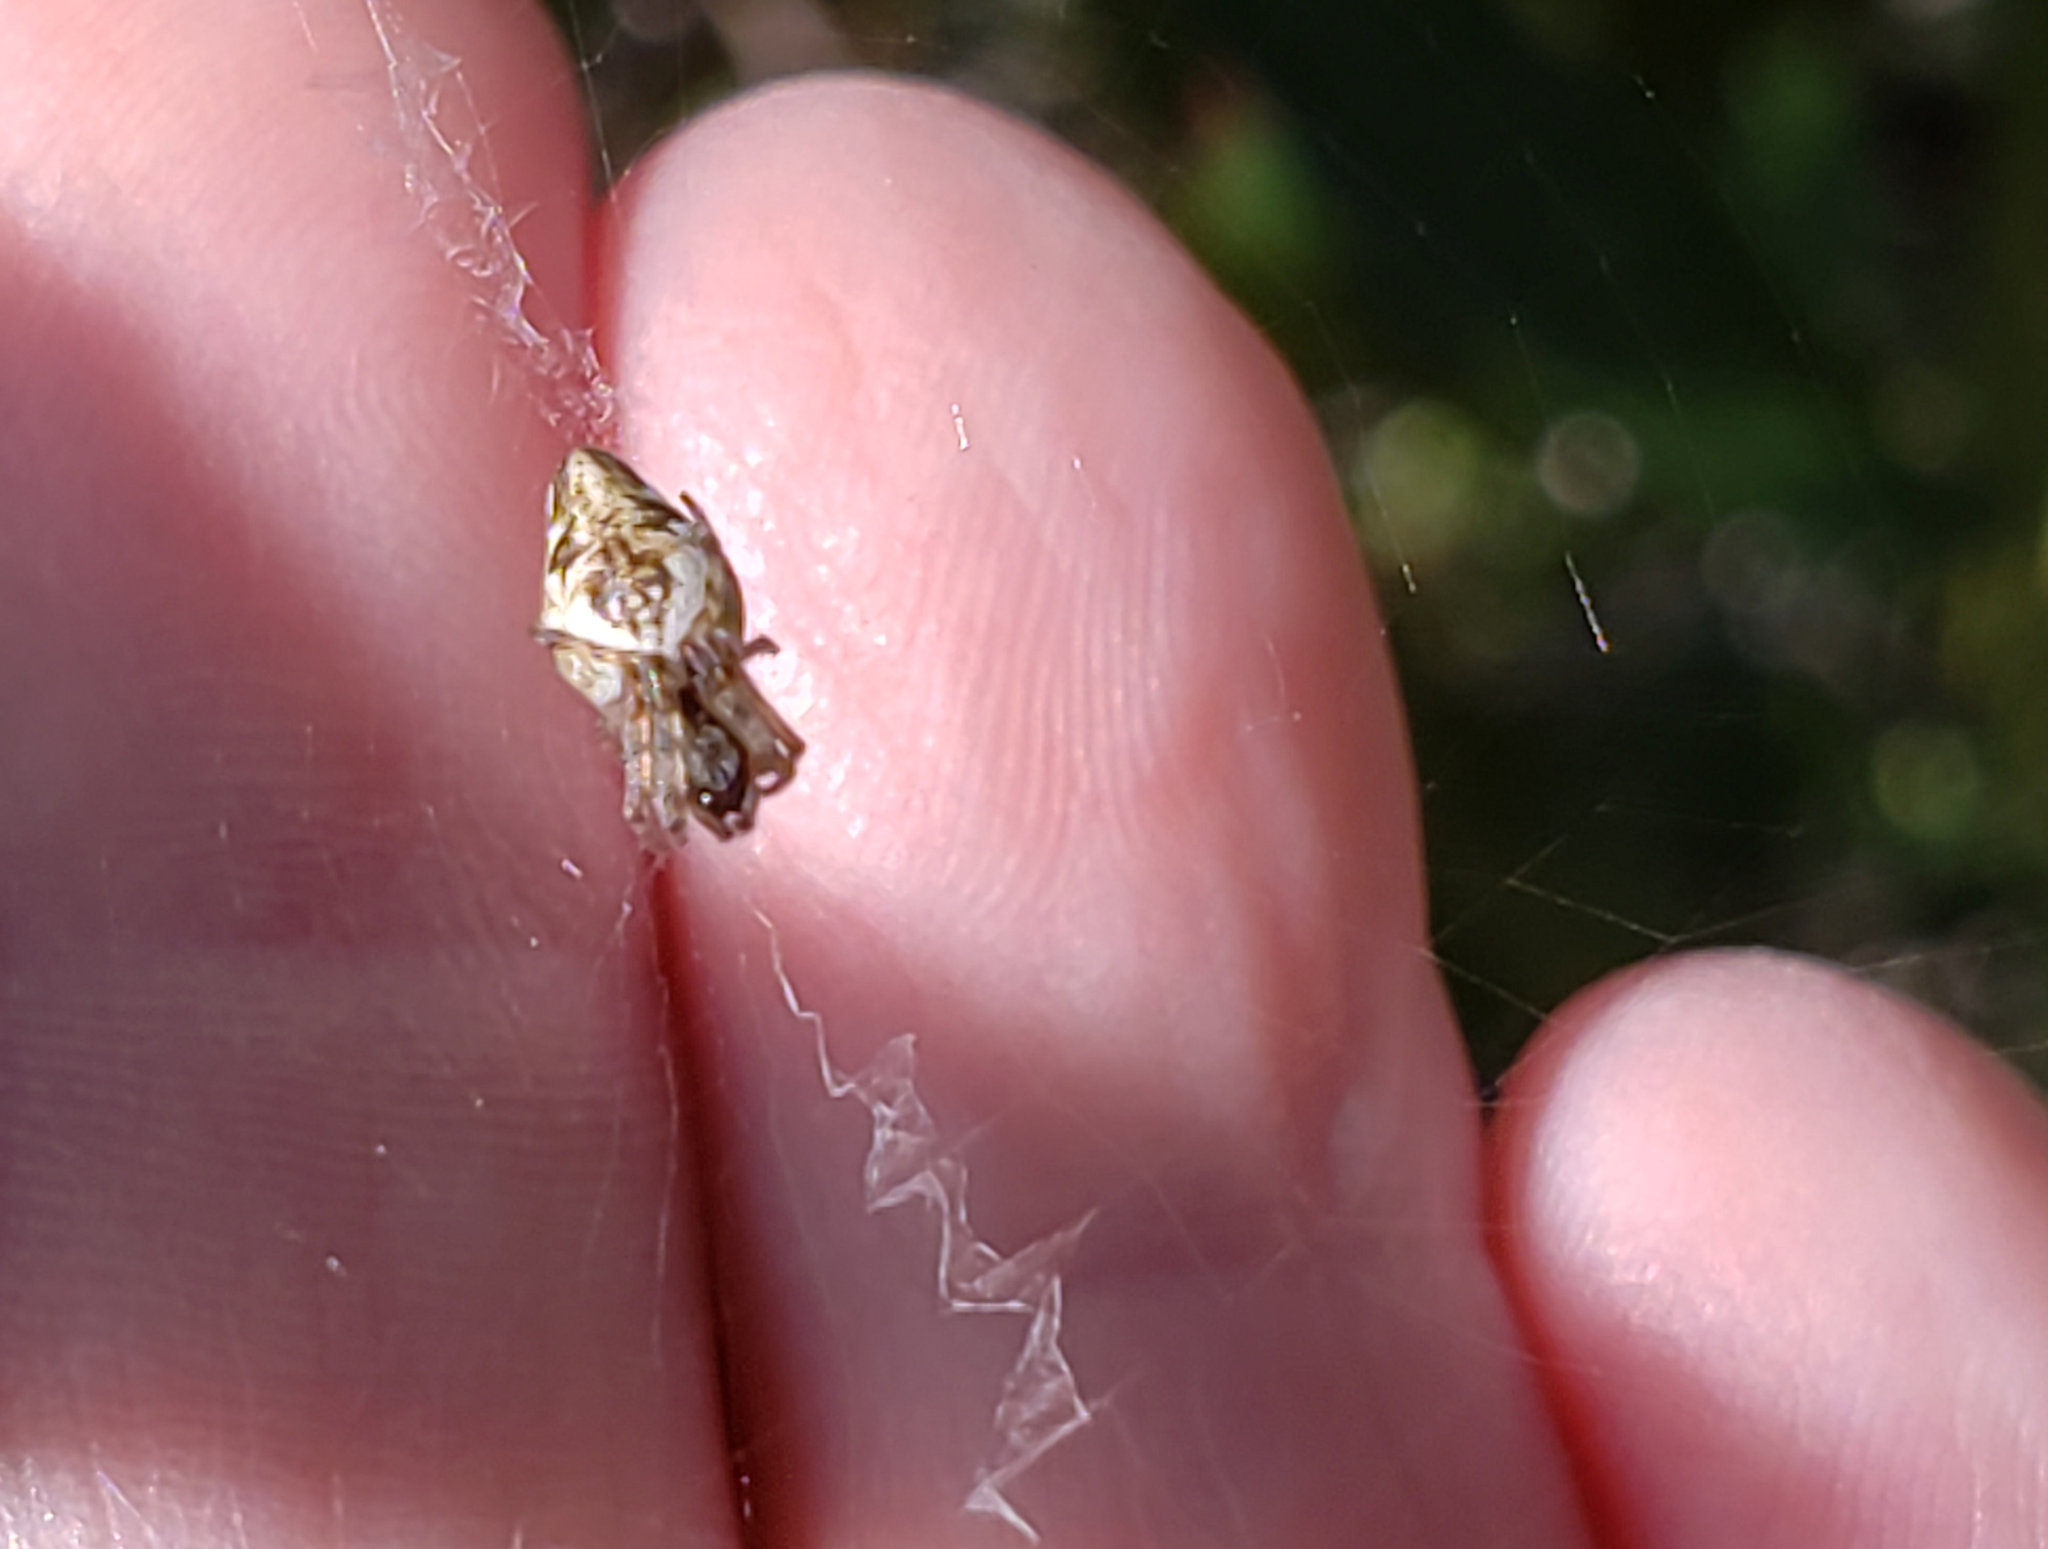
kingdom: Animalia
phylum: Arthropoda
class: Arachnida
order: Araneae
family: Araneidae
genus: Cyclosa
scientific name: Cyclosa conica
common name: Conical trashline orbweaver
